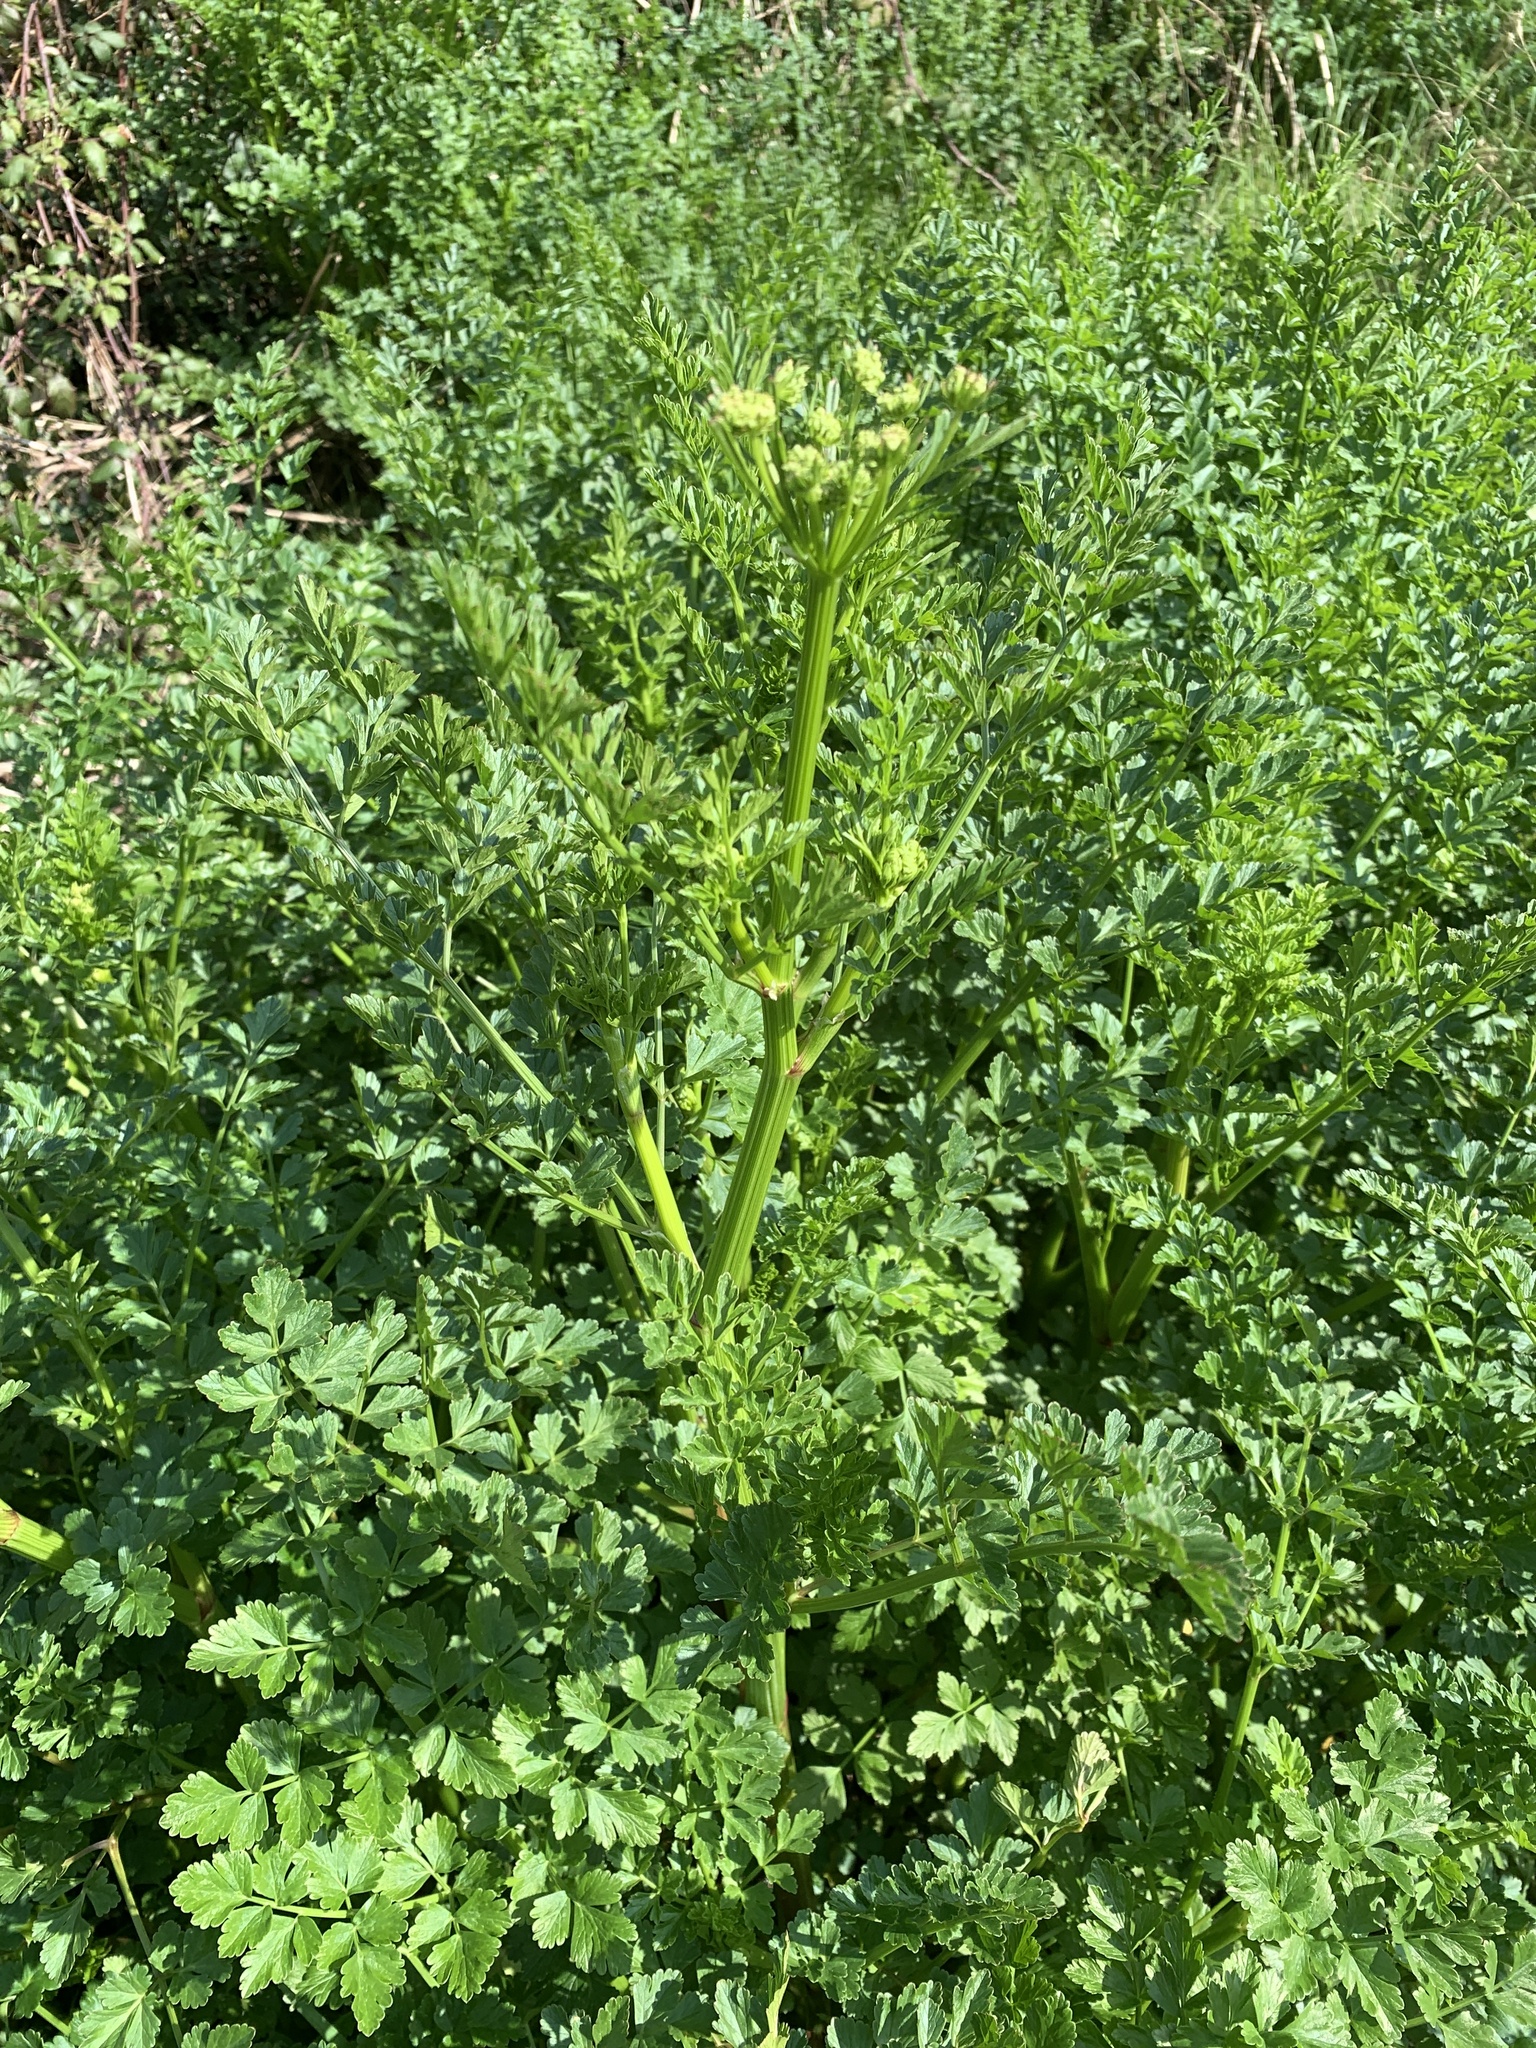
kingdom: Plantae
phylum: Tracheophyta
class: Magnoliopsida
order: Apiales
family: Apiaceae
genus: Oenanthe
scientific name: Oenanthe crocata
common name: Hemlock water-dropwort
